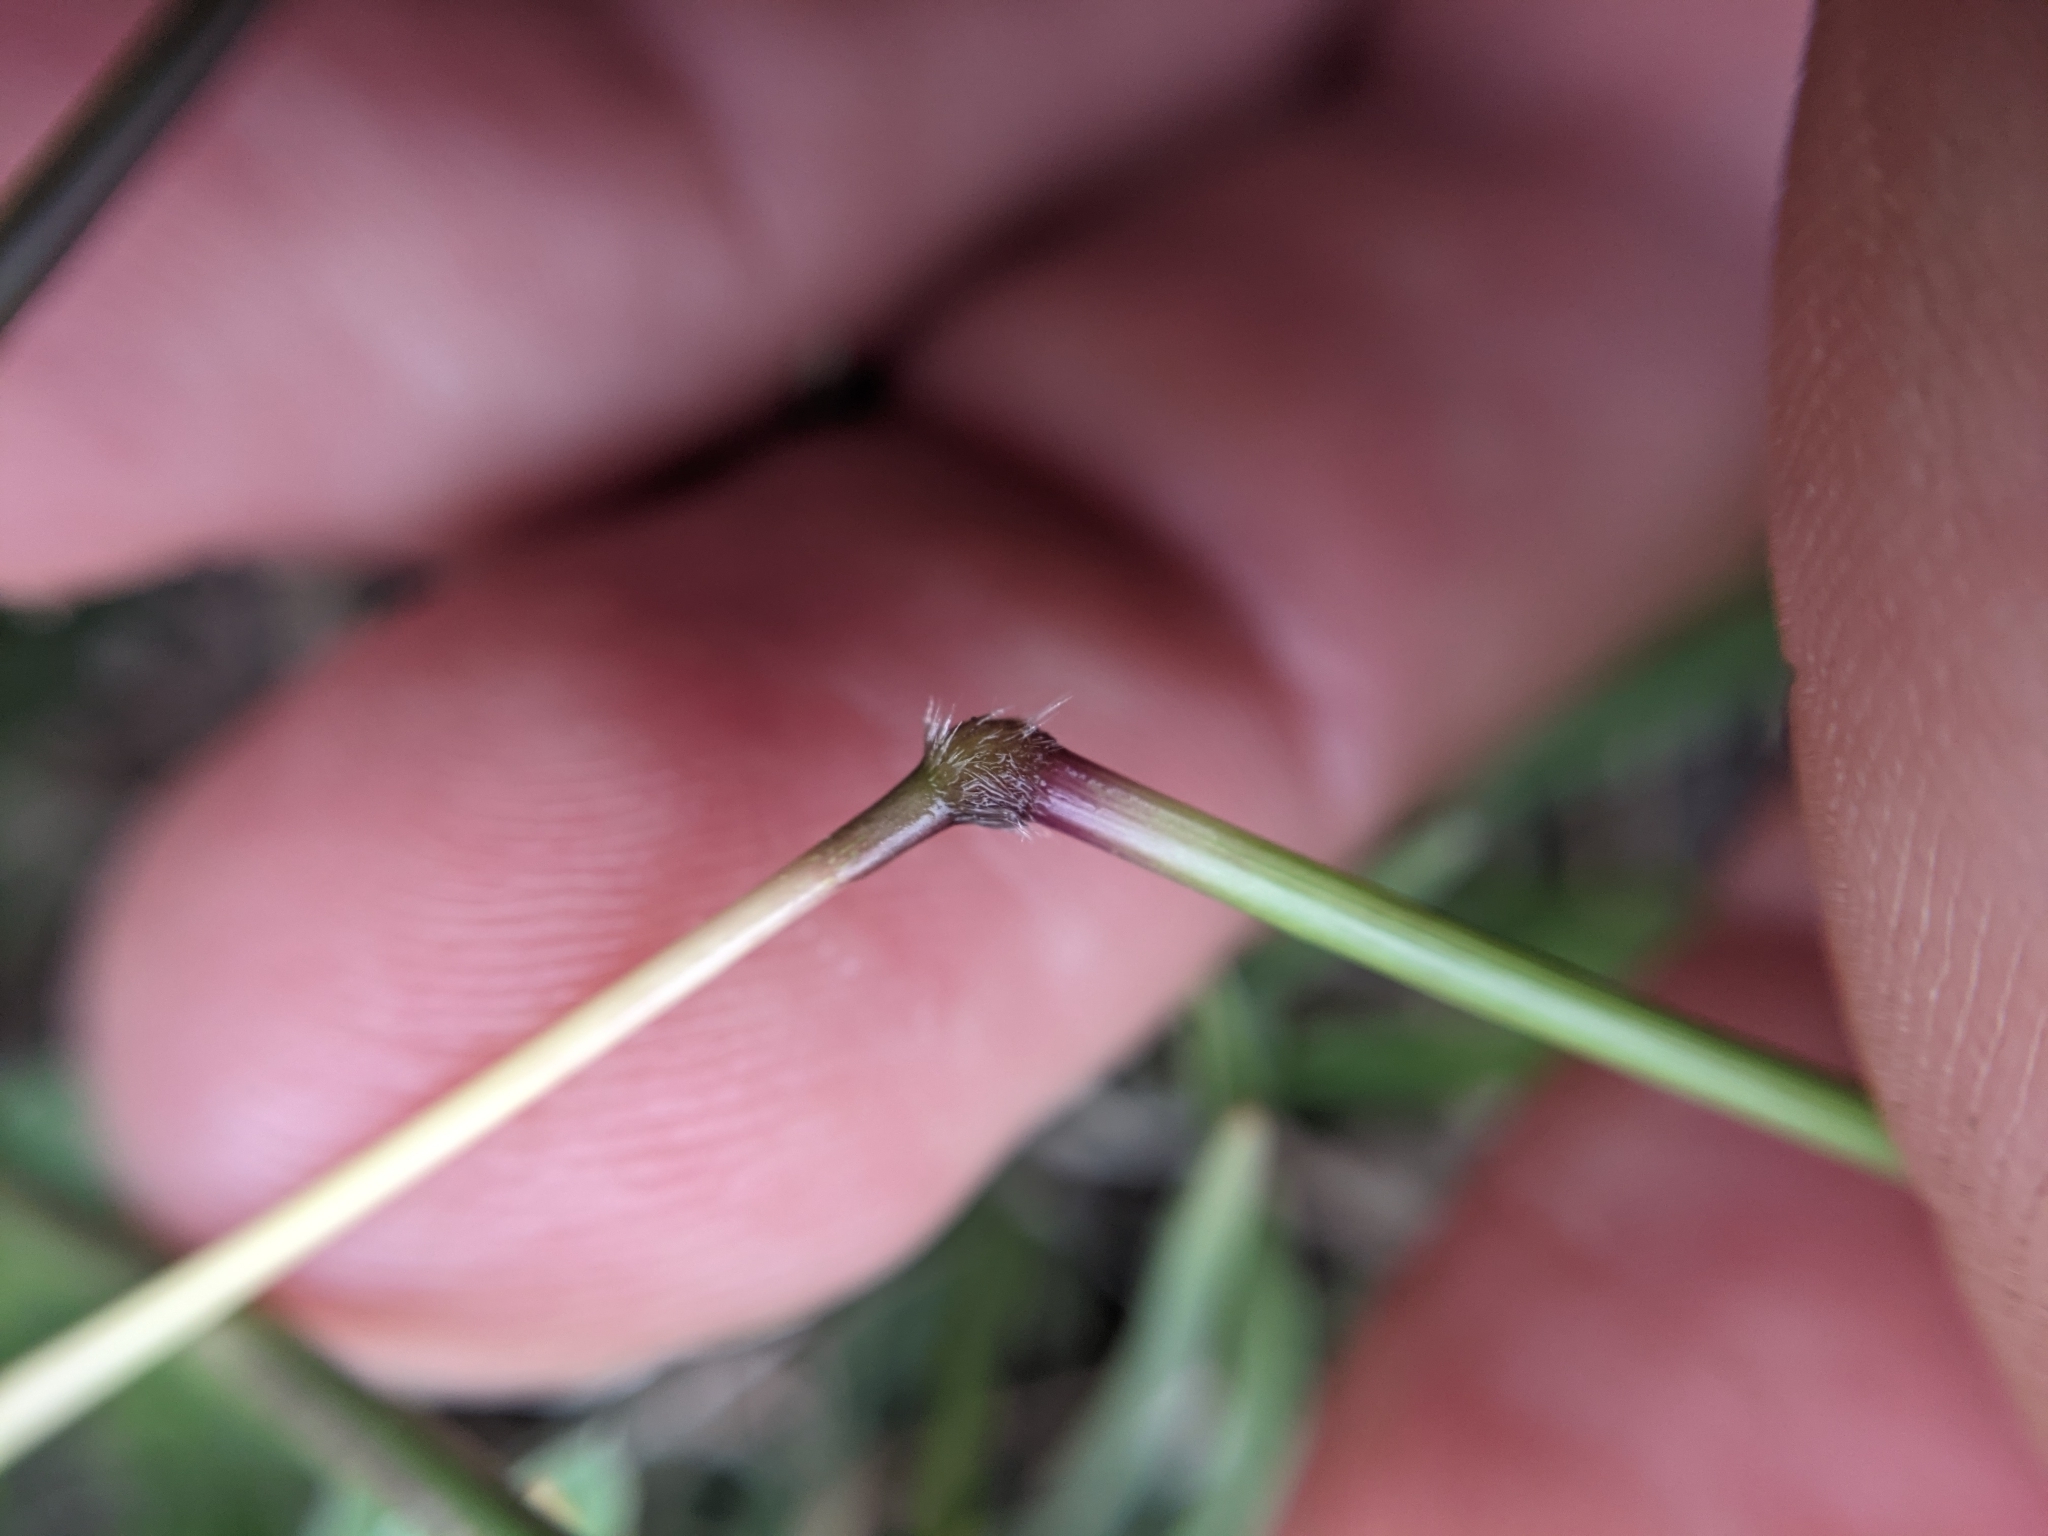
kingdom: Plantae
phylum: Tracheophyta
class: Liliopsida
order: Poales
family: Poaceae
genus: Bothriochloa
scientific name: Bothriochloa ischaemum
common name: Yellow bluestem
